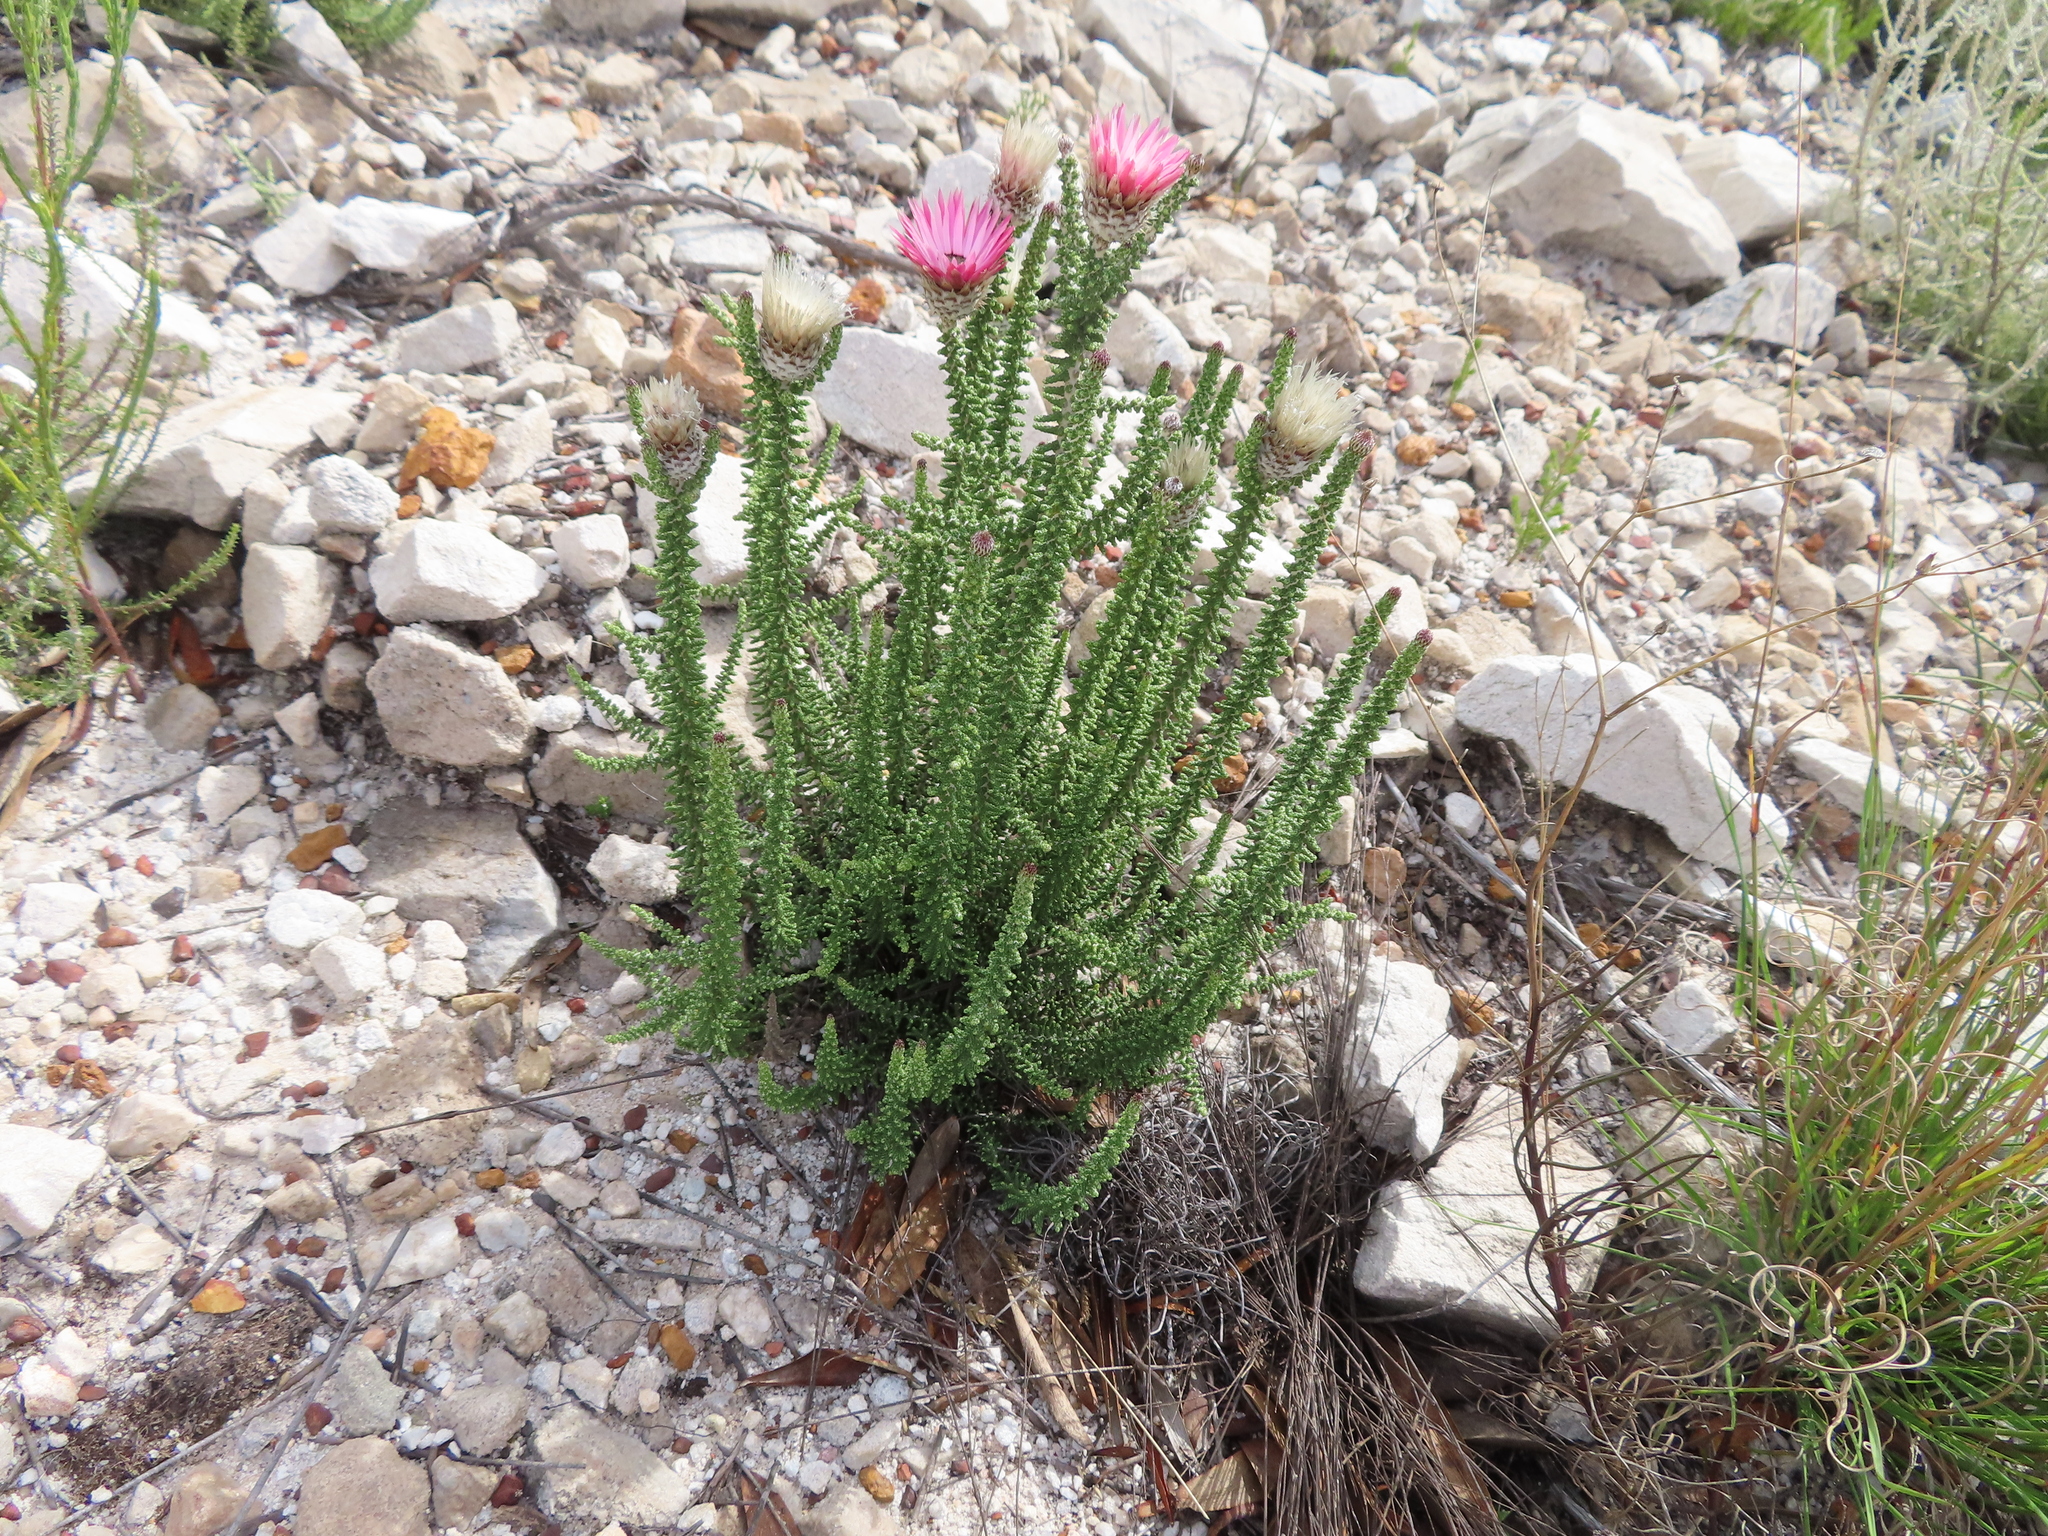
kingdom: Plantae
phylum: Tracheophyta
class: Magnoliopsida
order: Asterales
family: Asteraceae
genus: Phaenocoma
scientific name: Phaenocoma prolifera
